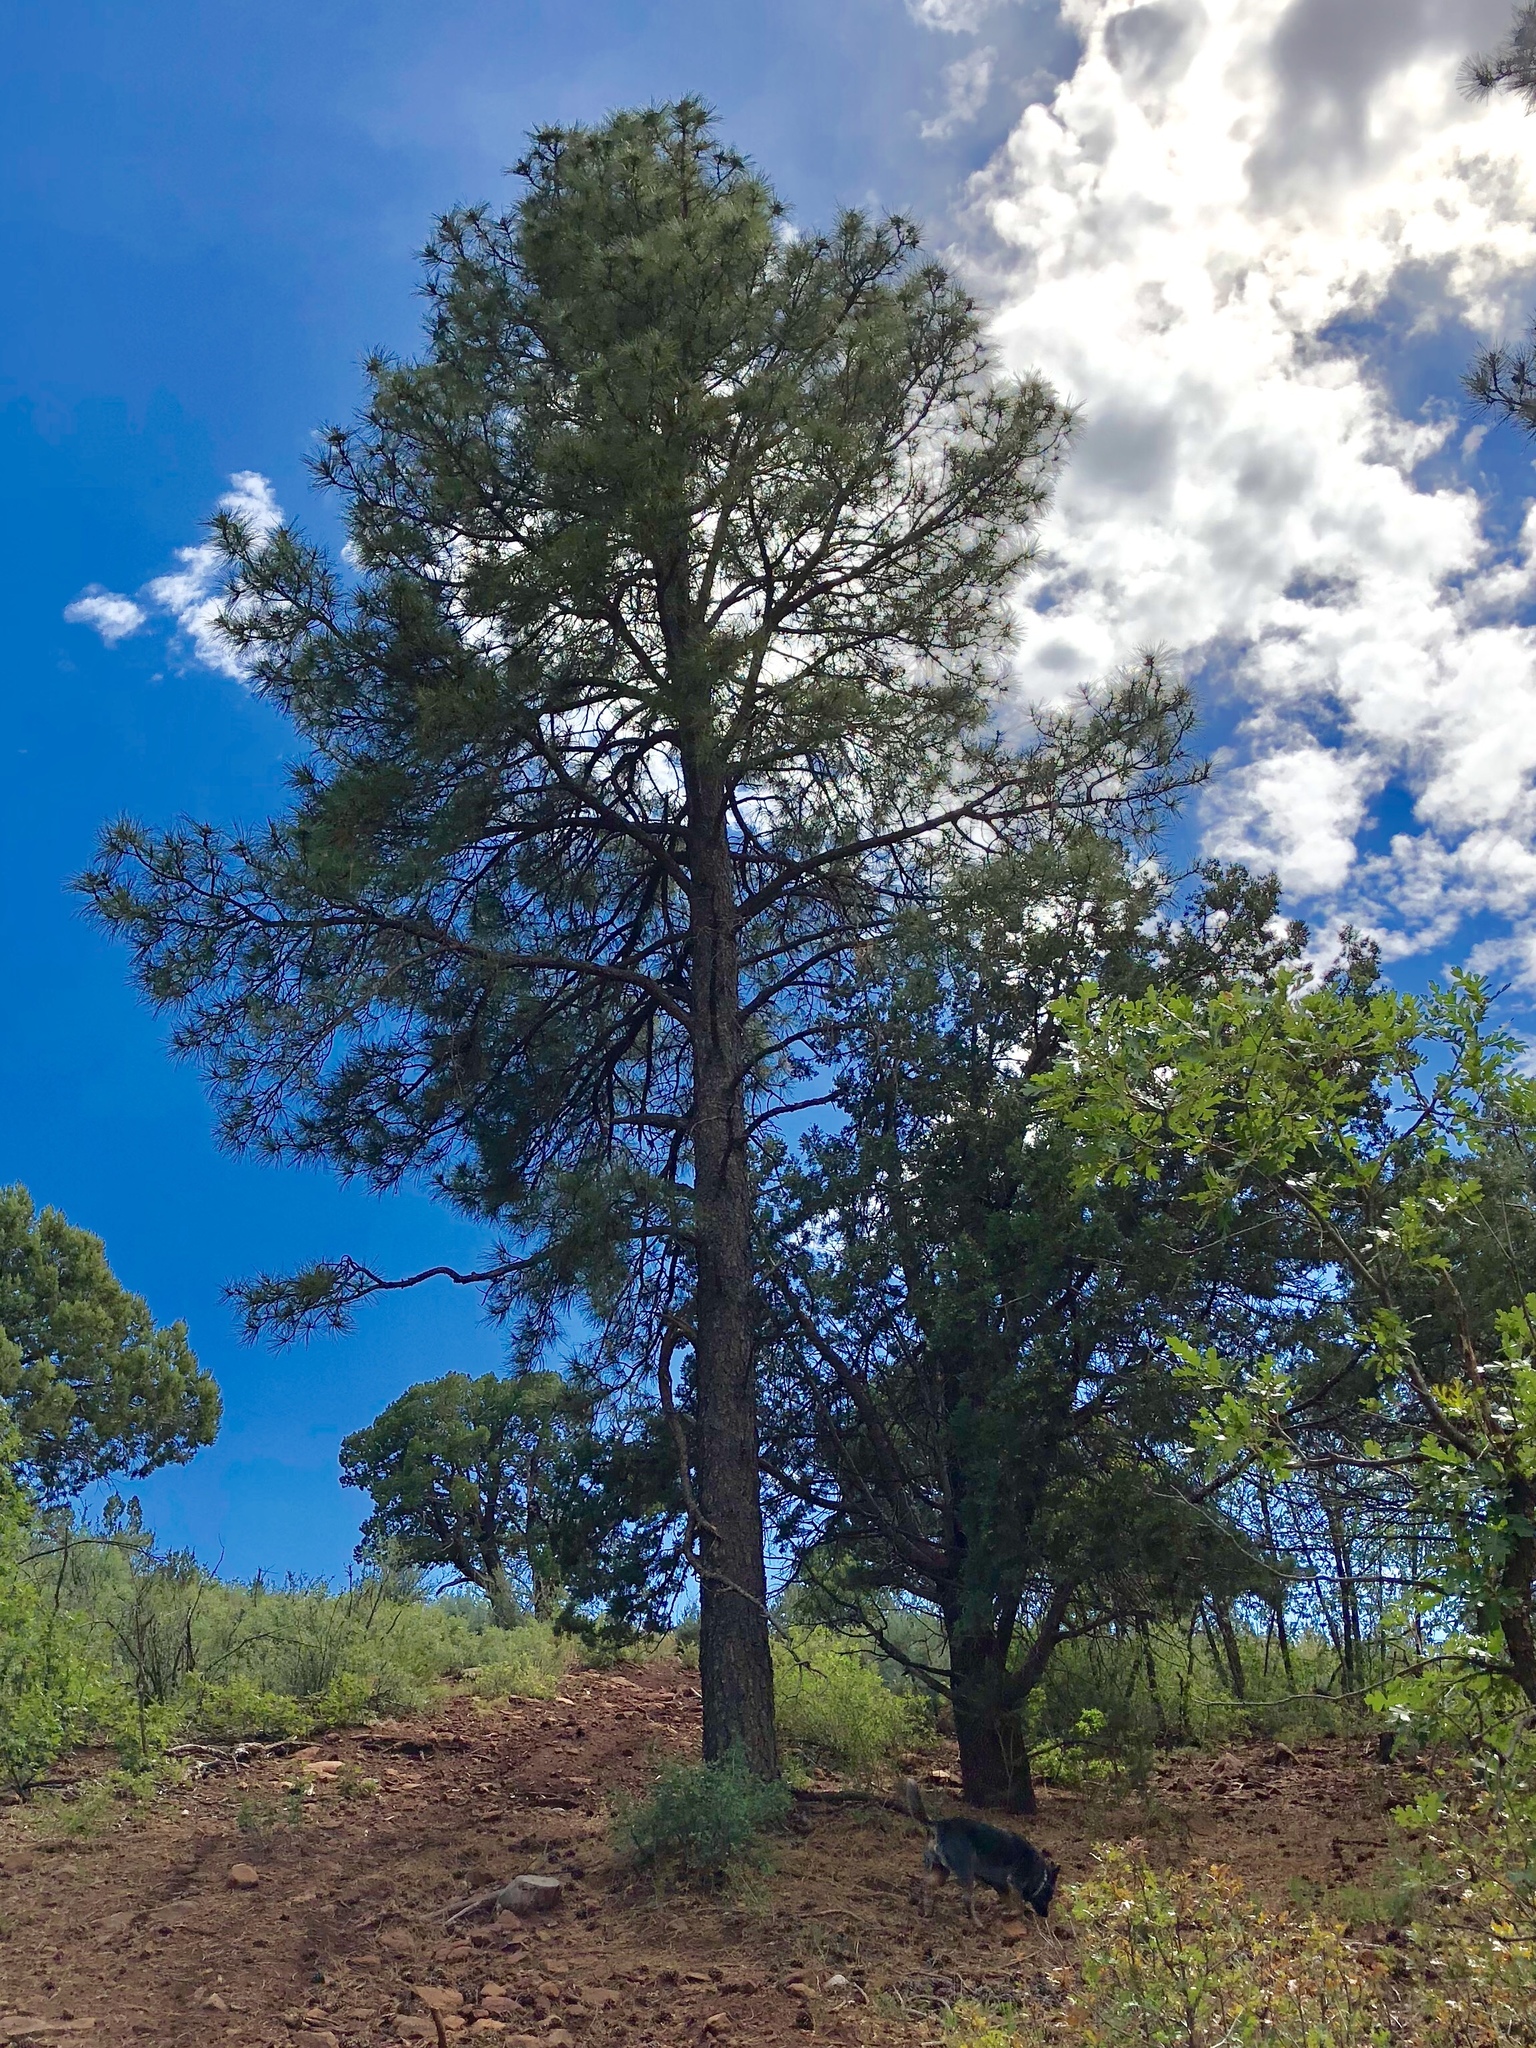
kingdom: Plantae
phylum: Tracheophyta
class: Pinopsida
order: Pinales
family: Pinaceae
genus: Pinus
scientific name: Pinus ponderosa
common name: Western yellow-pine
